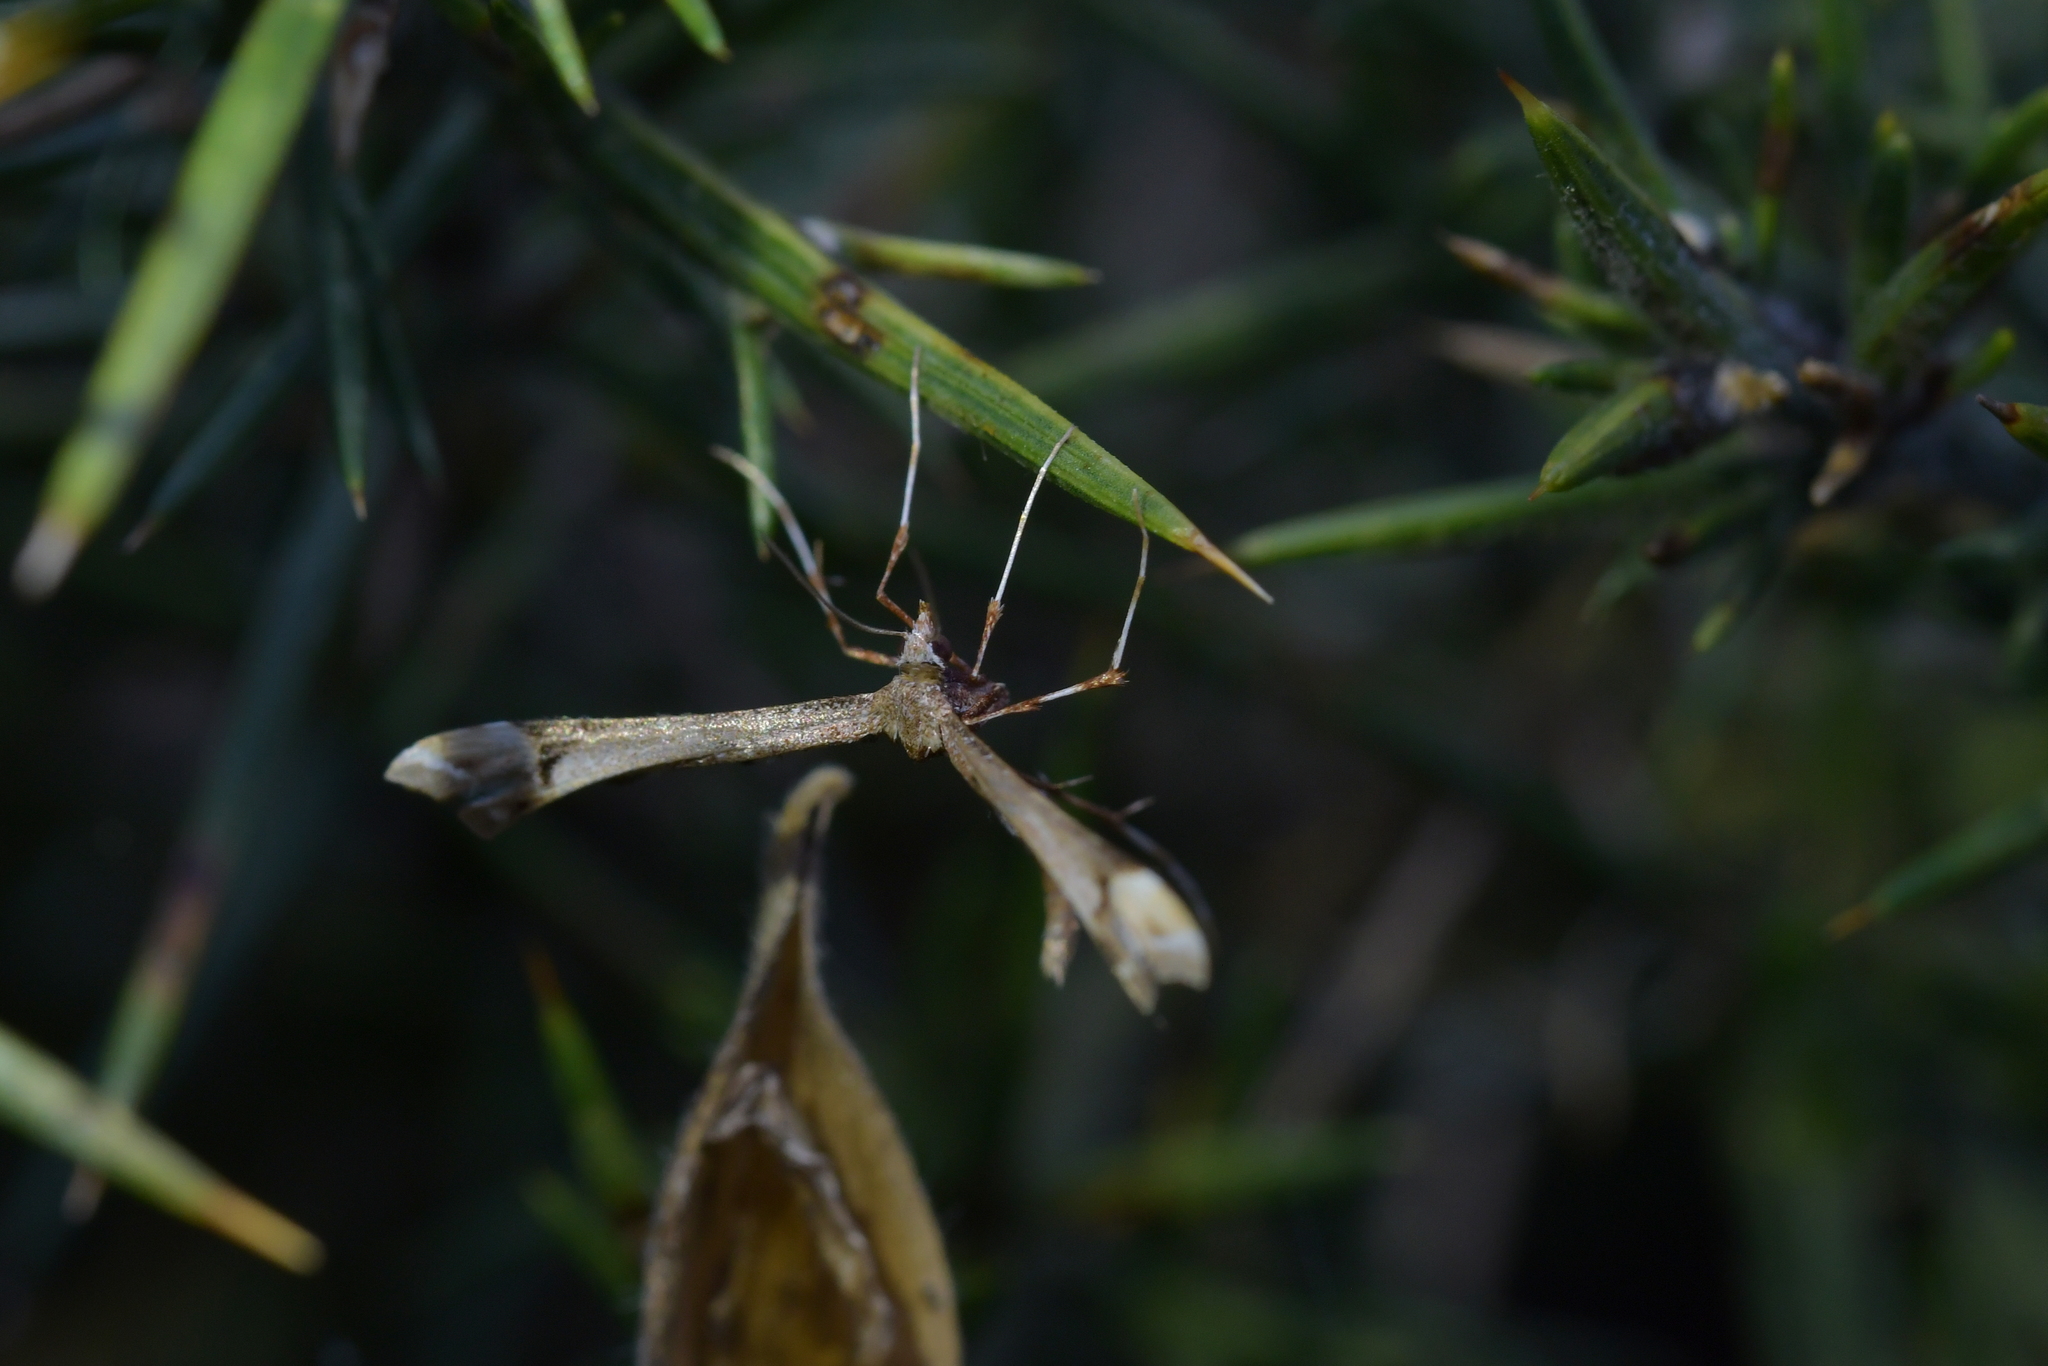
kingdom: Animalia
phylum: Arthropoda
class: Insecta
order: Lepidoptera
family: Pterophoridae
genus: Amblyptilia
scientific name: Amblyptilia falcatalis
